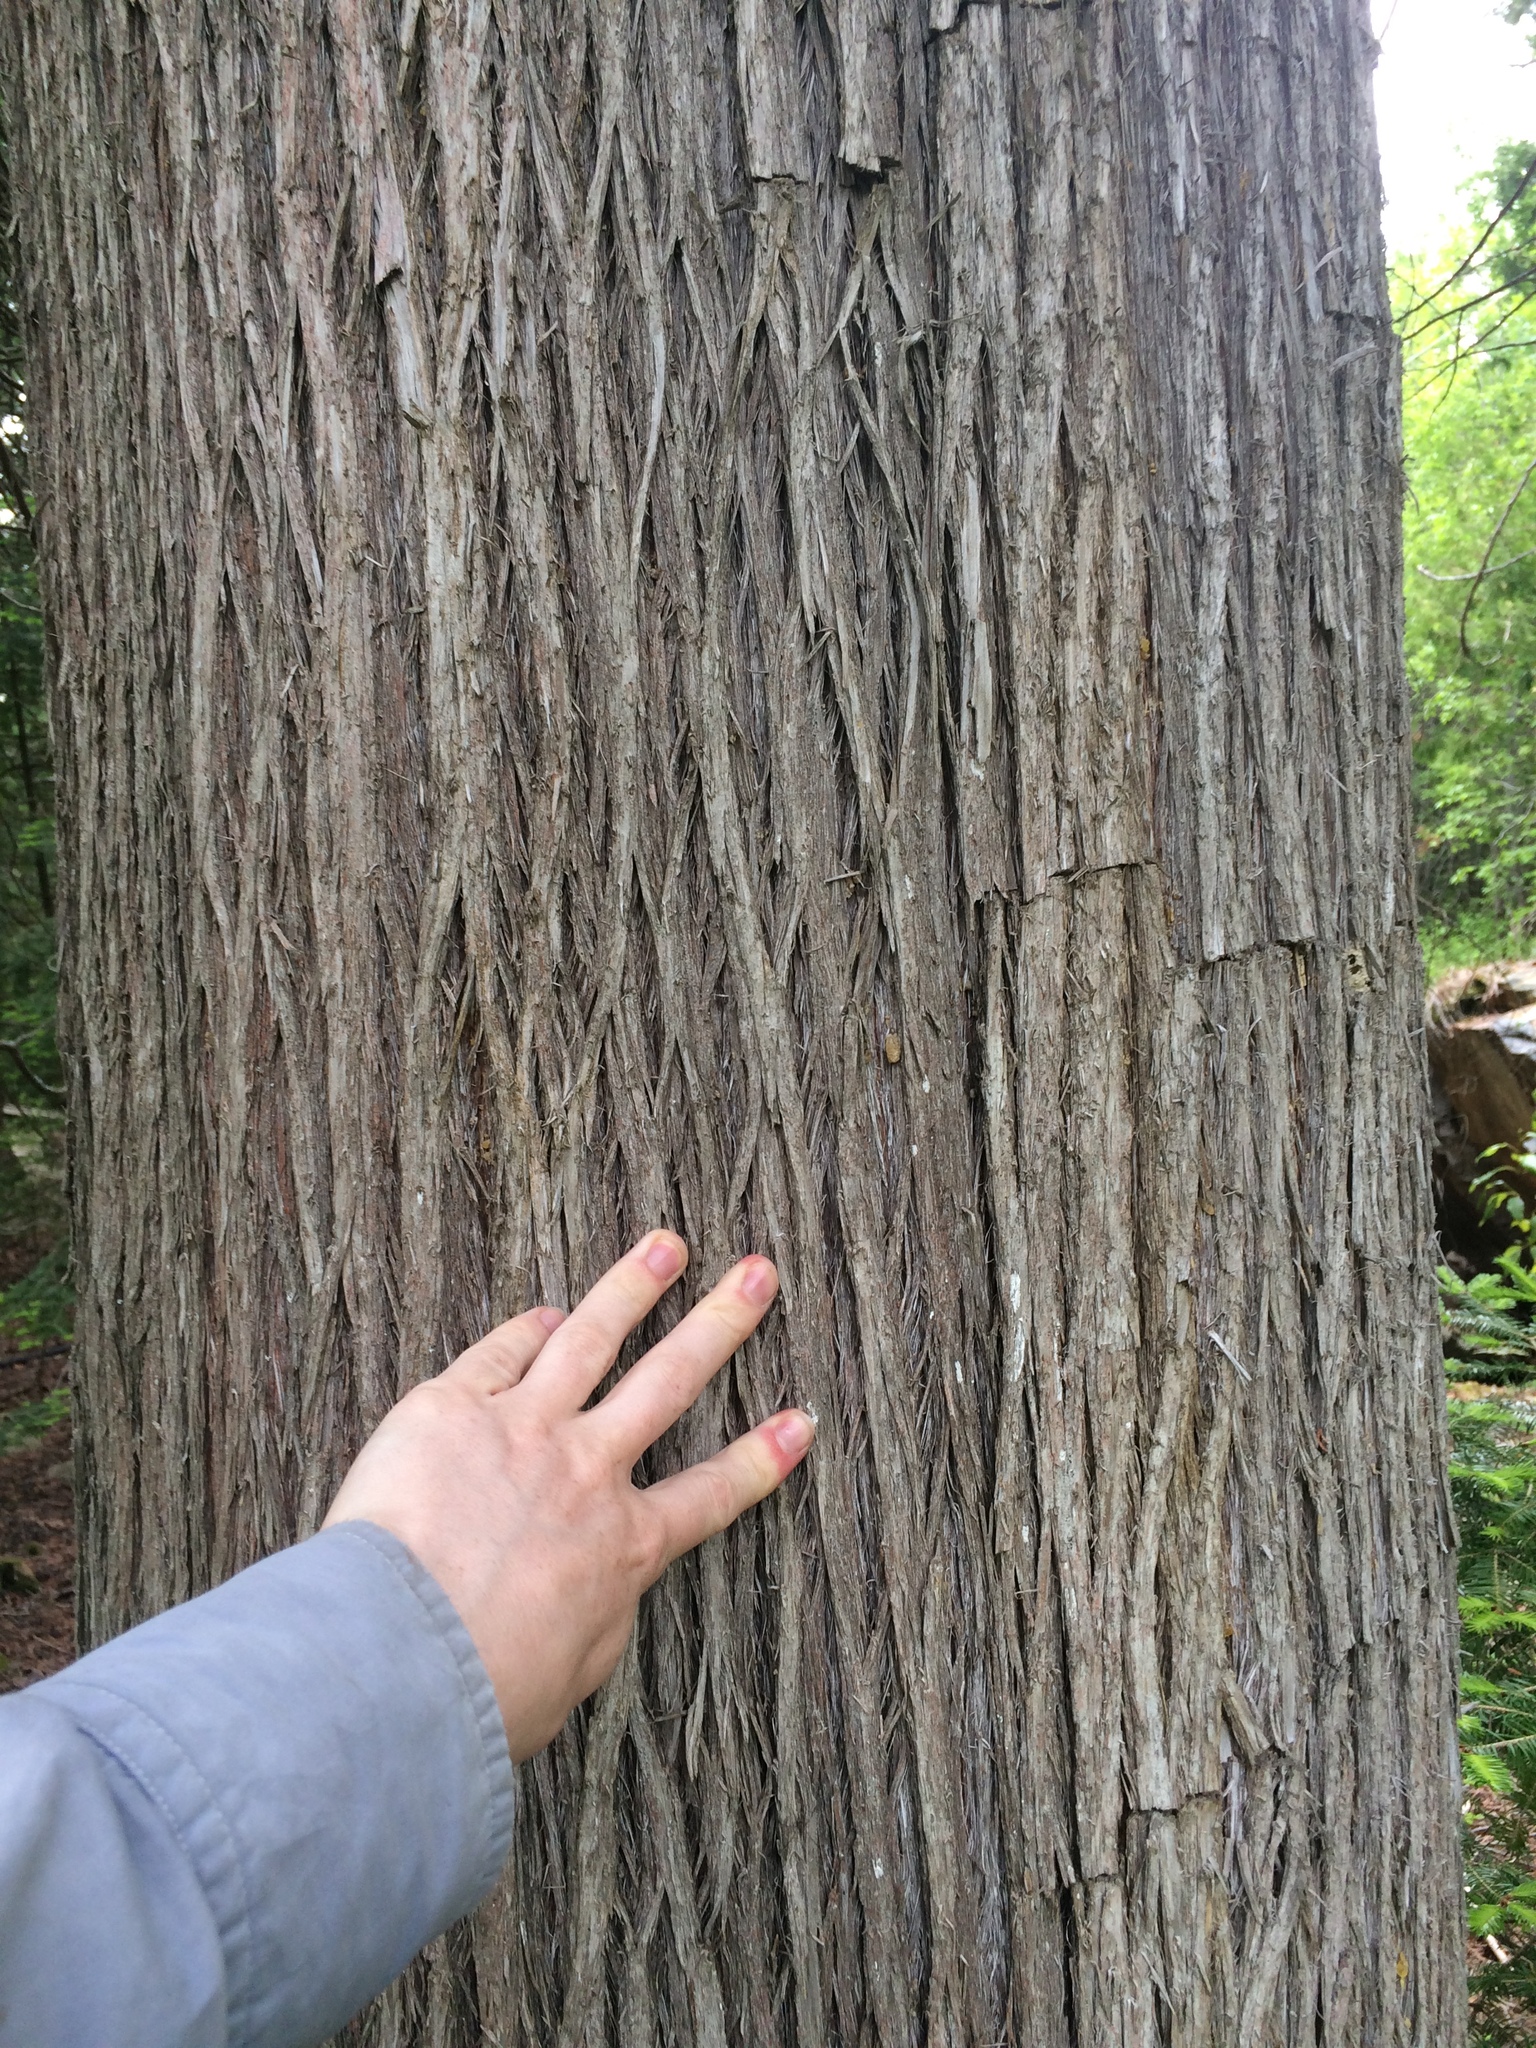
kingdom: Plantae
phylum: Tracheophyta
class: Pinopsida
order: Pinales
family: Cupressaceae
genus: Thuja
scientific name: Thuja occidentalis
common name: Northern white-cedar
